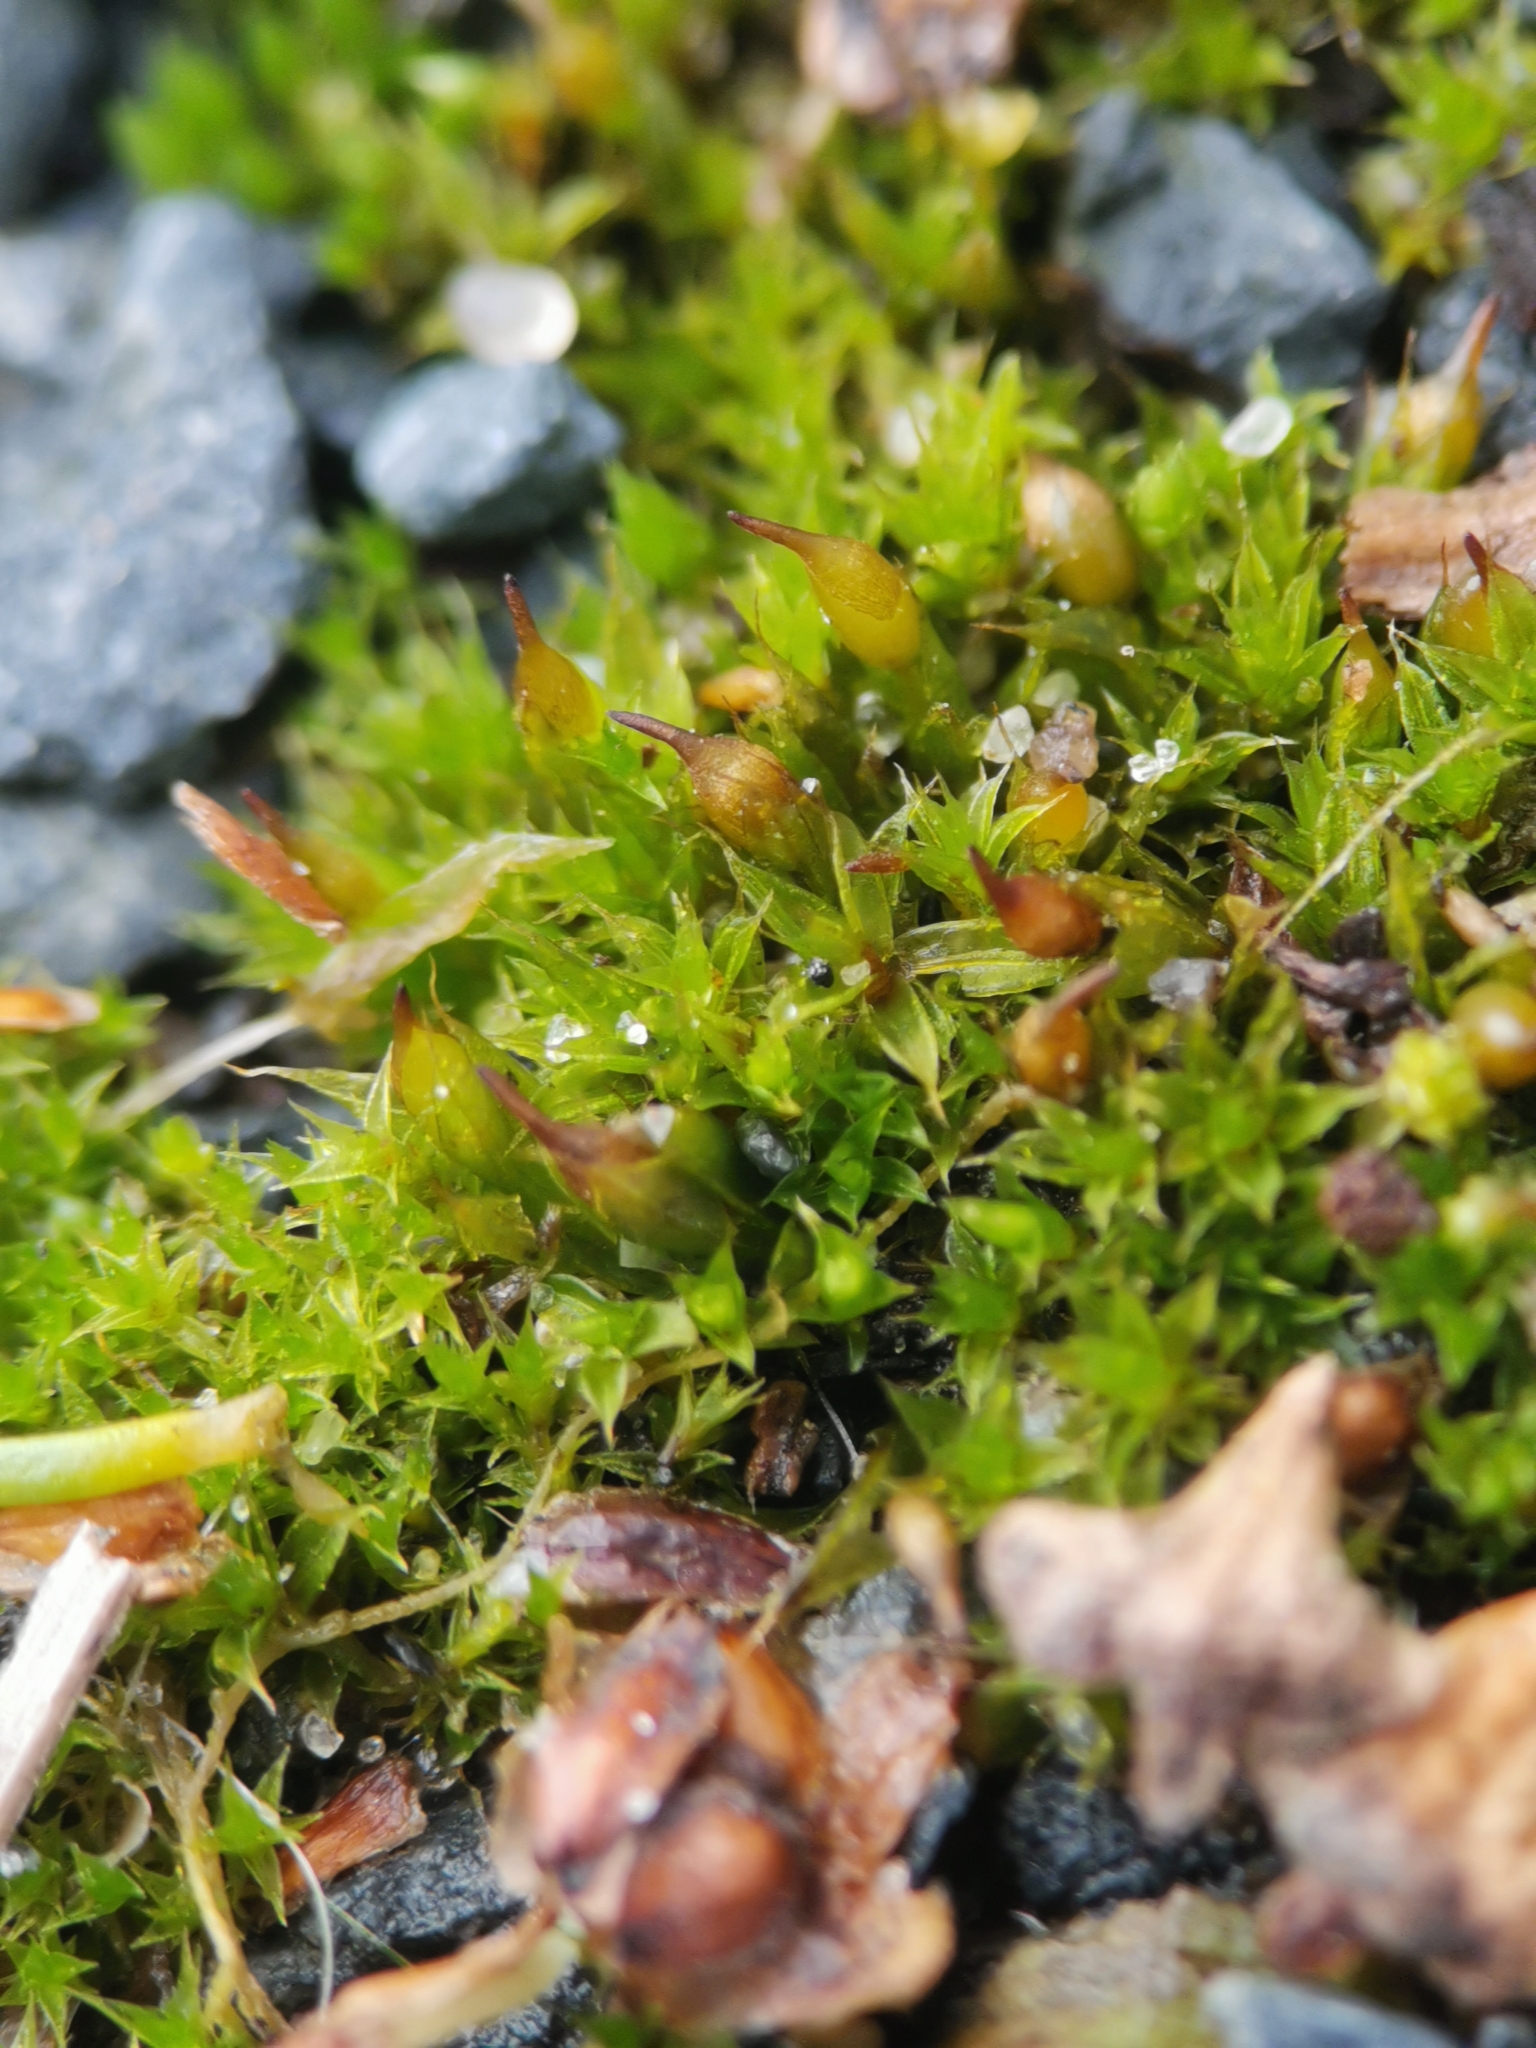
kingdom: Plantae
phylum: Bryophyta
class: Bryopsida
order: Pottiales
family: Pottiaceae
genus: Tortula
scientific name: Tortula protobryoides
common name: Tall pottia
